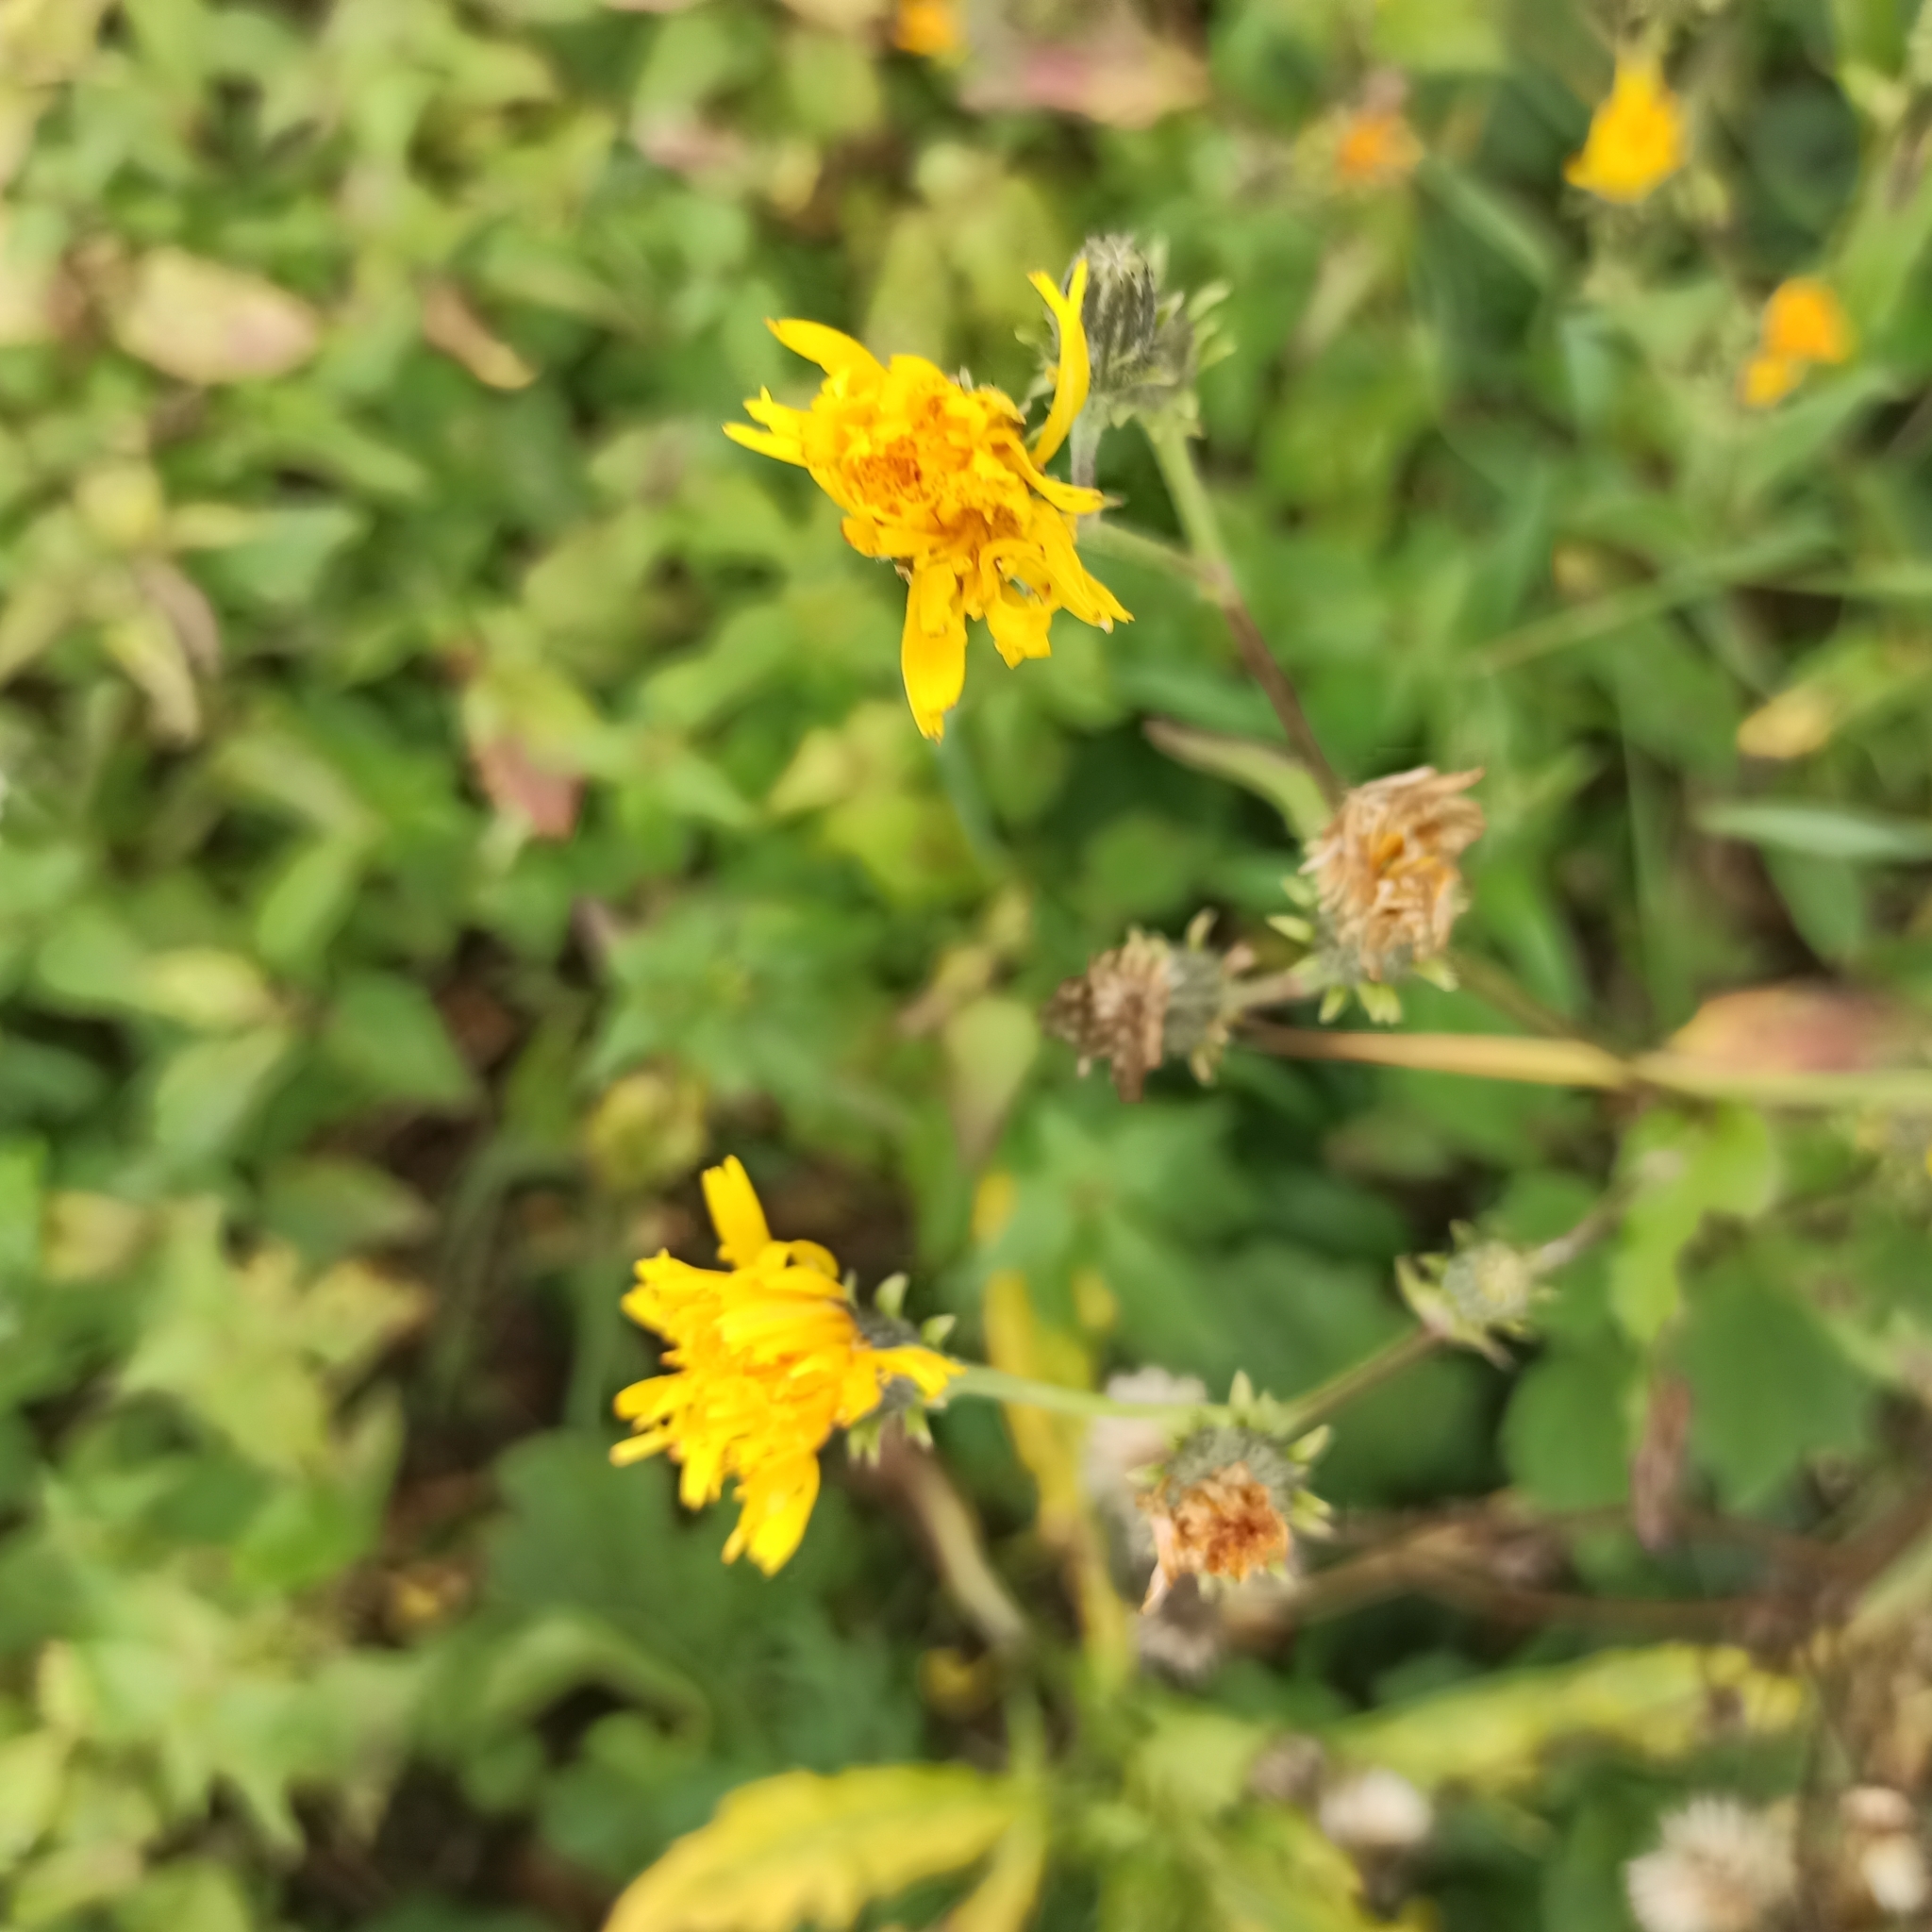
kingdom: Plantae
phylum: Tracheophyta
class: Magnoliopsida
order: Asterales
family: Asteraceae
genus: Picris
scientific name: Picris hieracioides
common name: Hawkweed oxtongue
